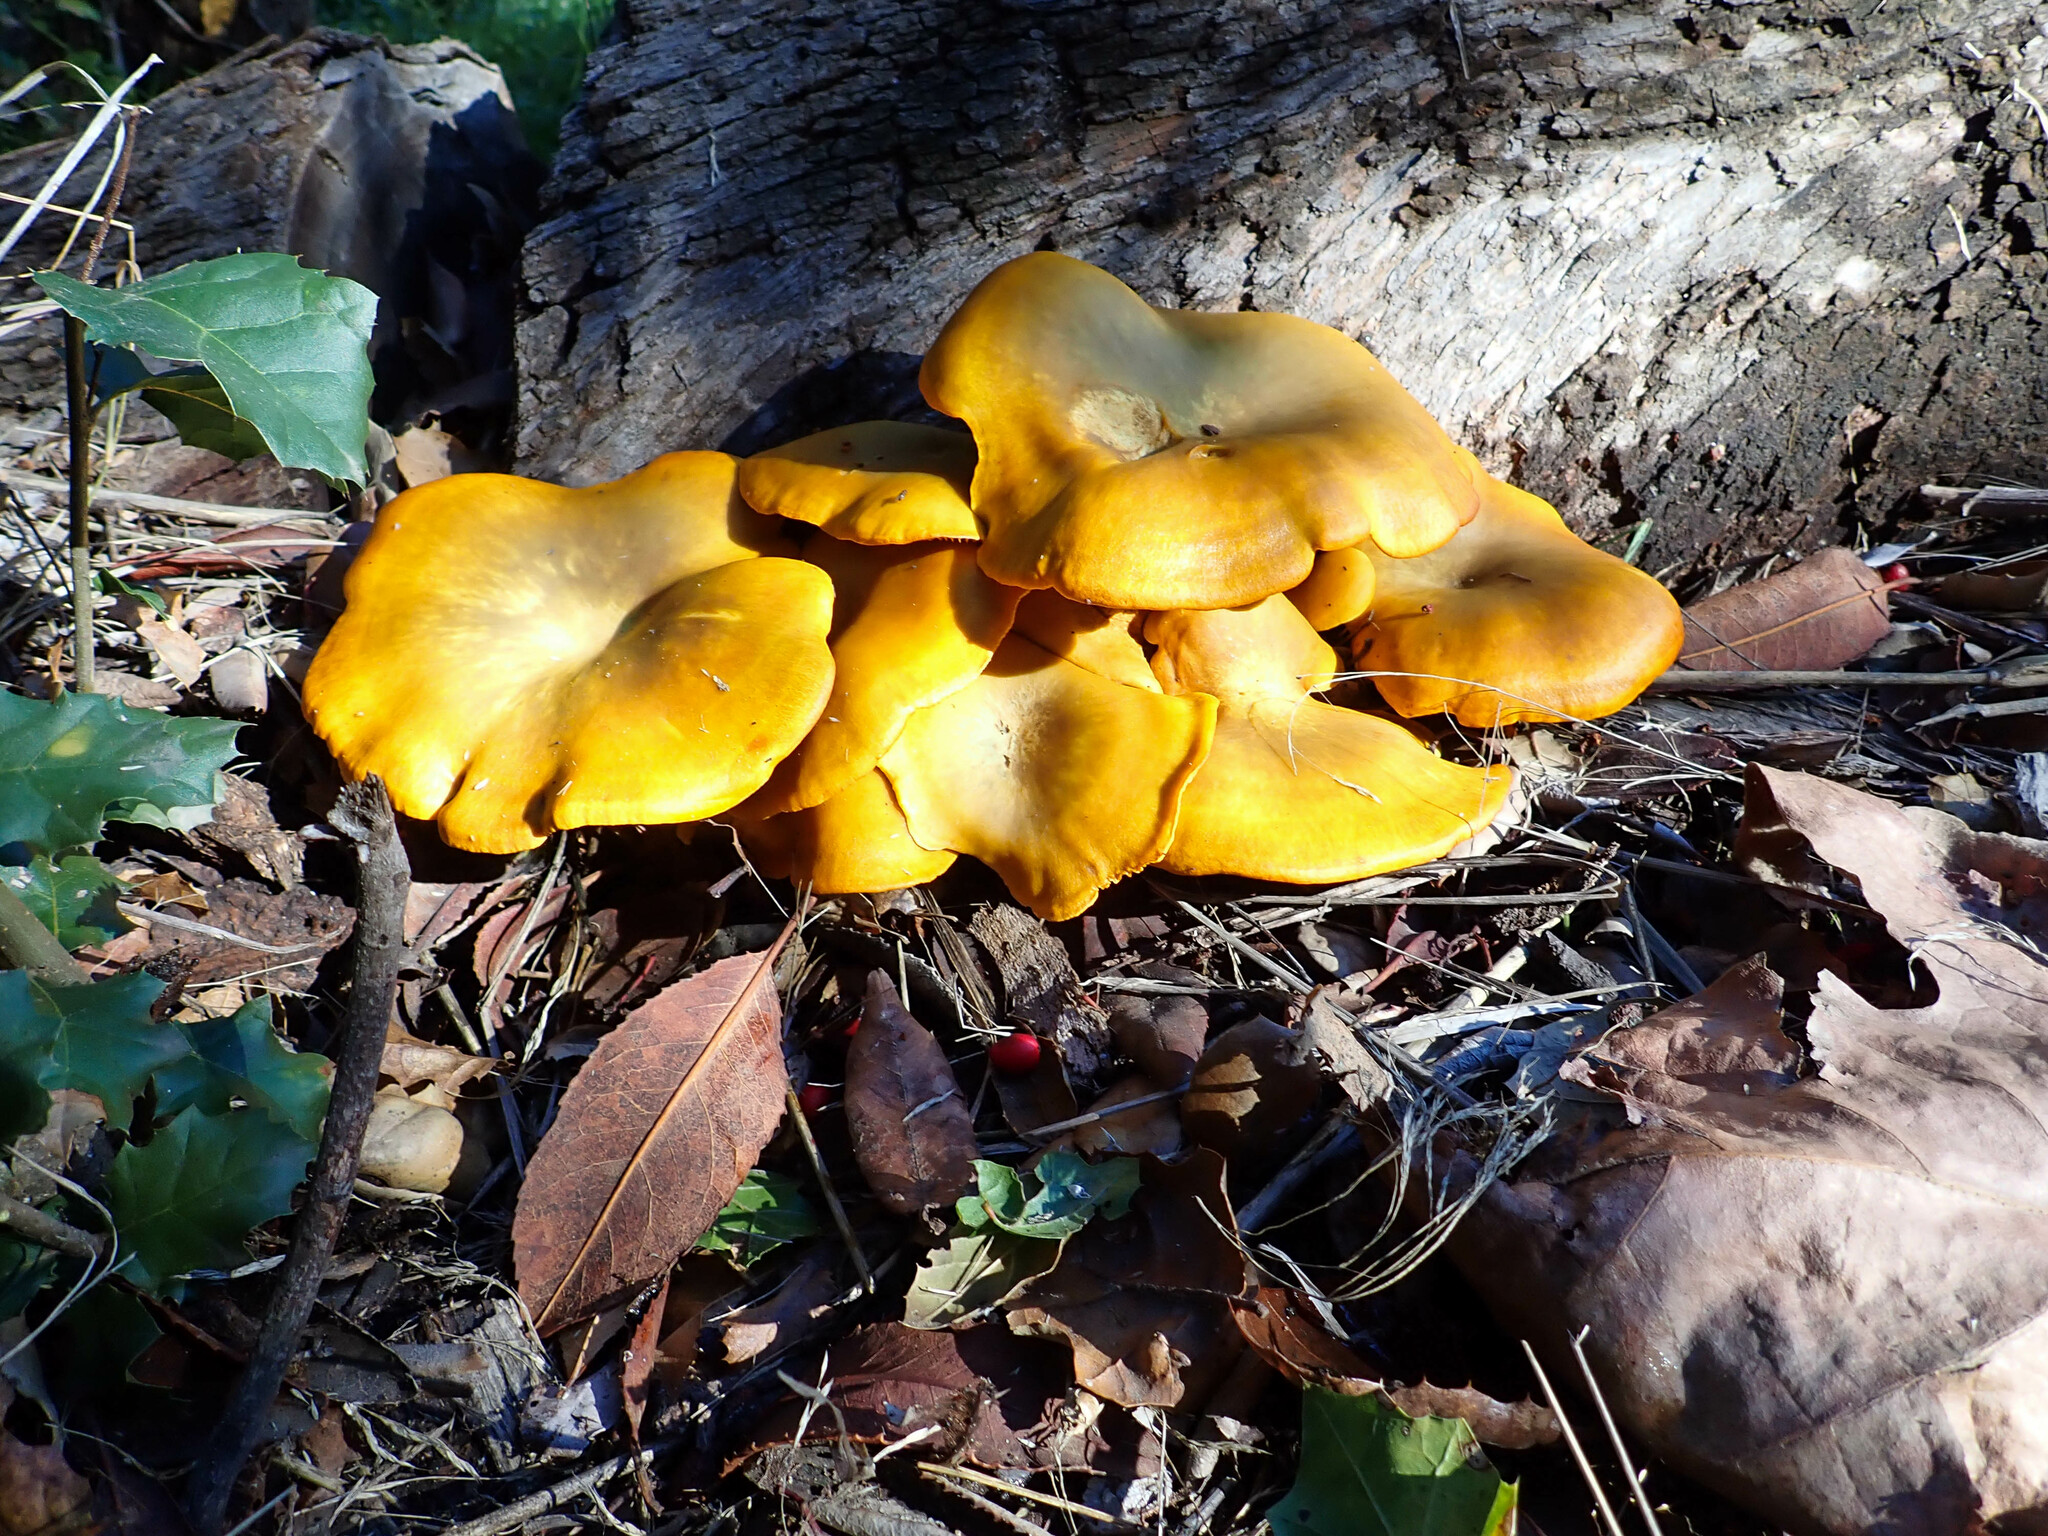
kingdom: Fungi
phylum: Basidiomycota
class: Agaricomycetes
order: Agaricales
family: Omphalotaceae
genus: Omphalotus
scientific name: Omphalotus olivascens
